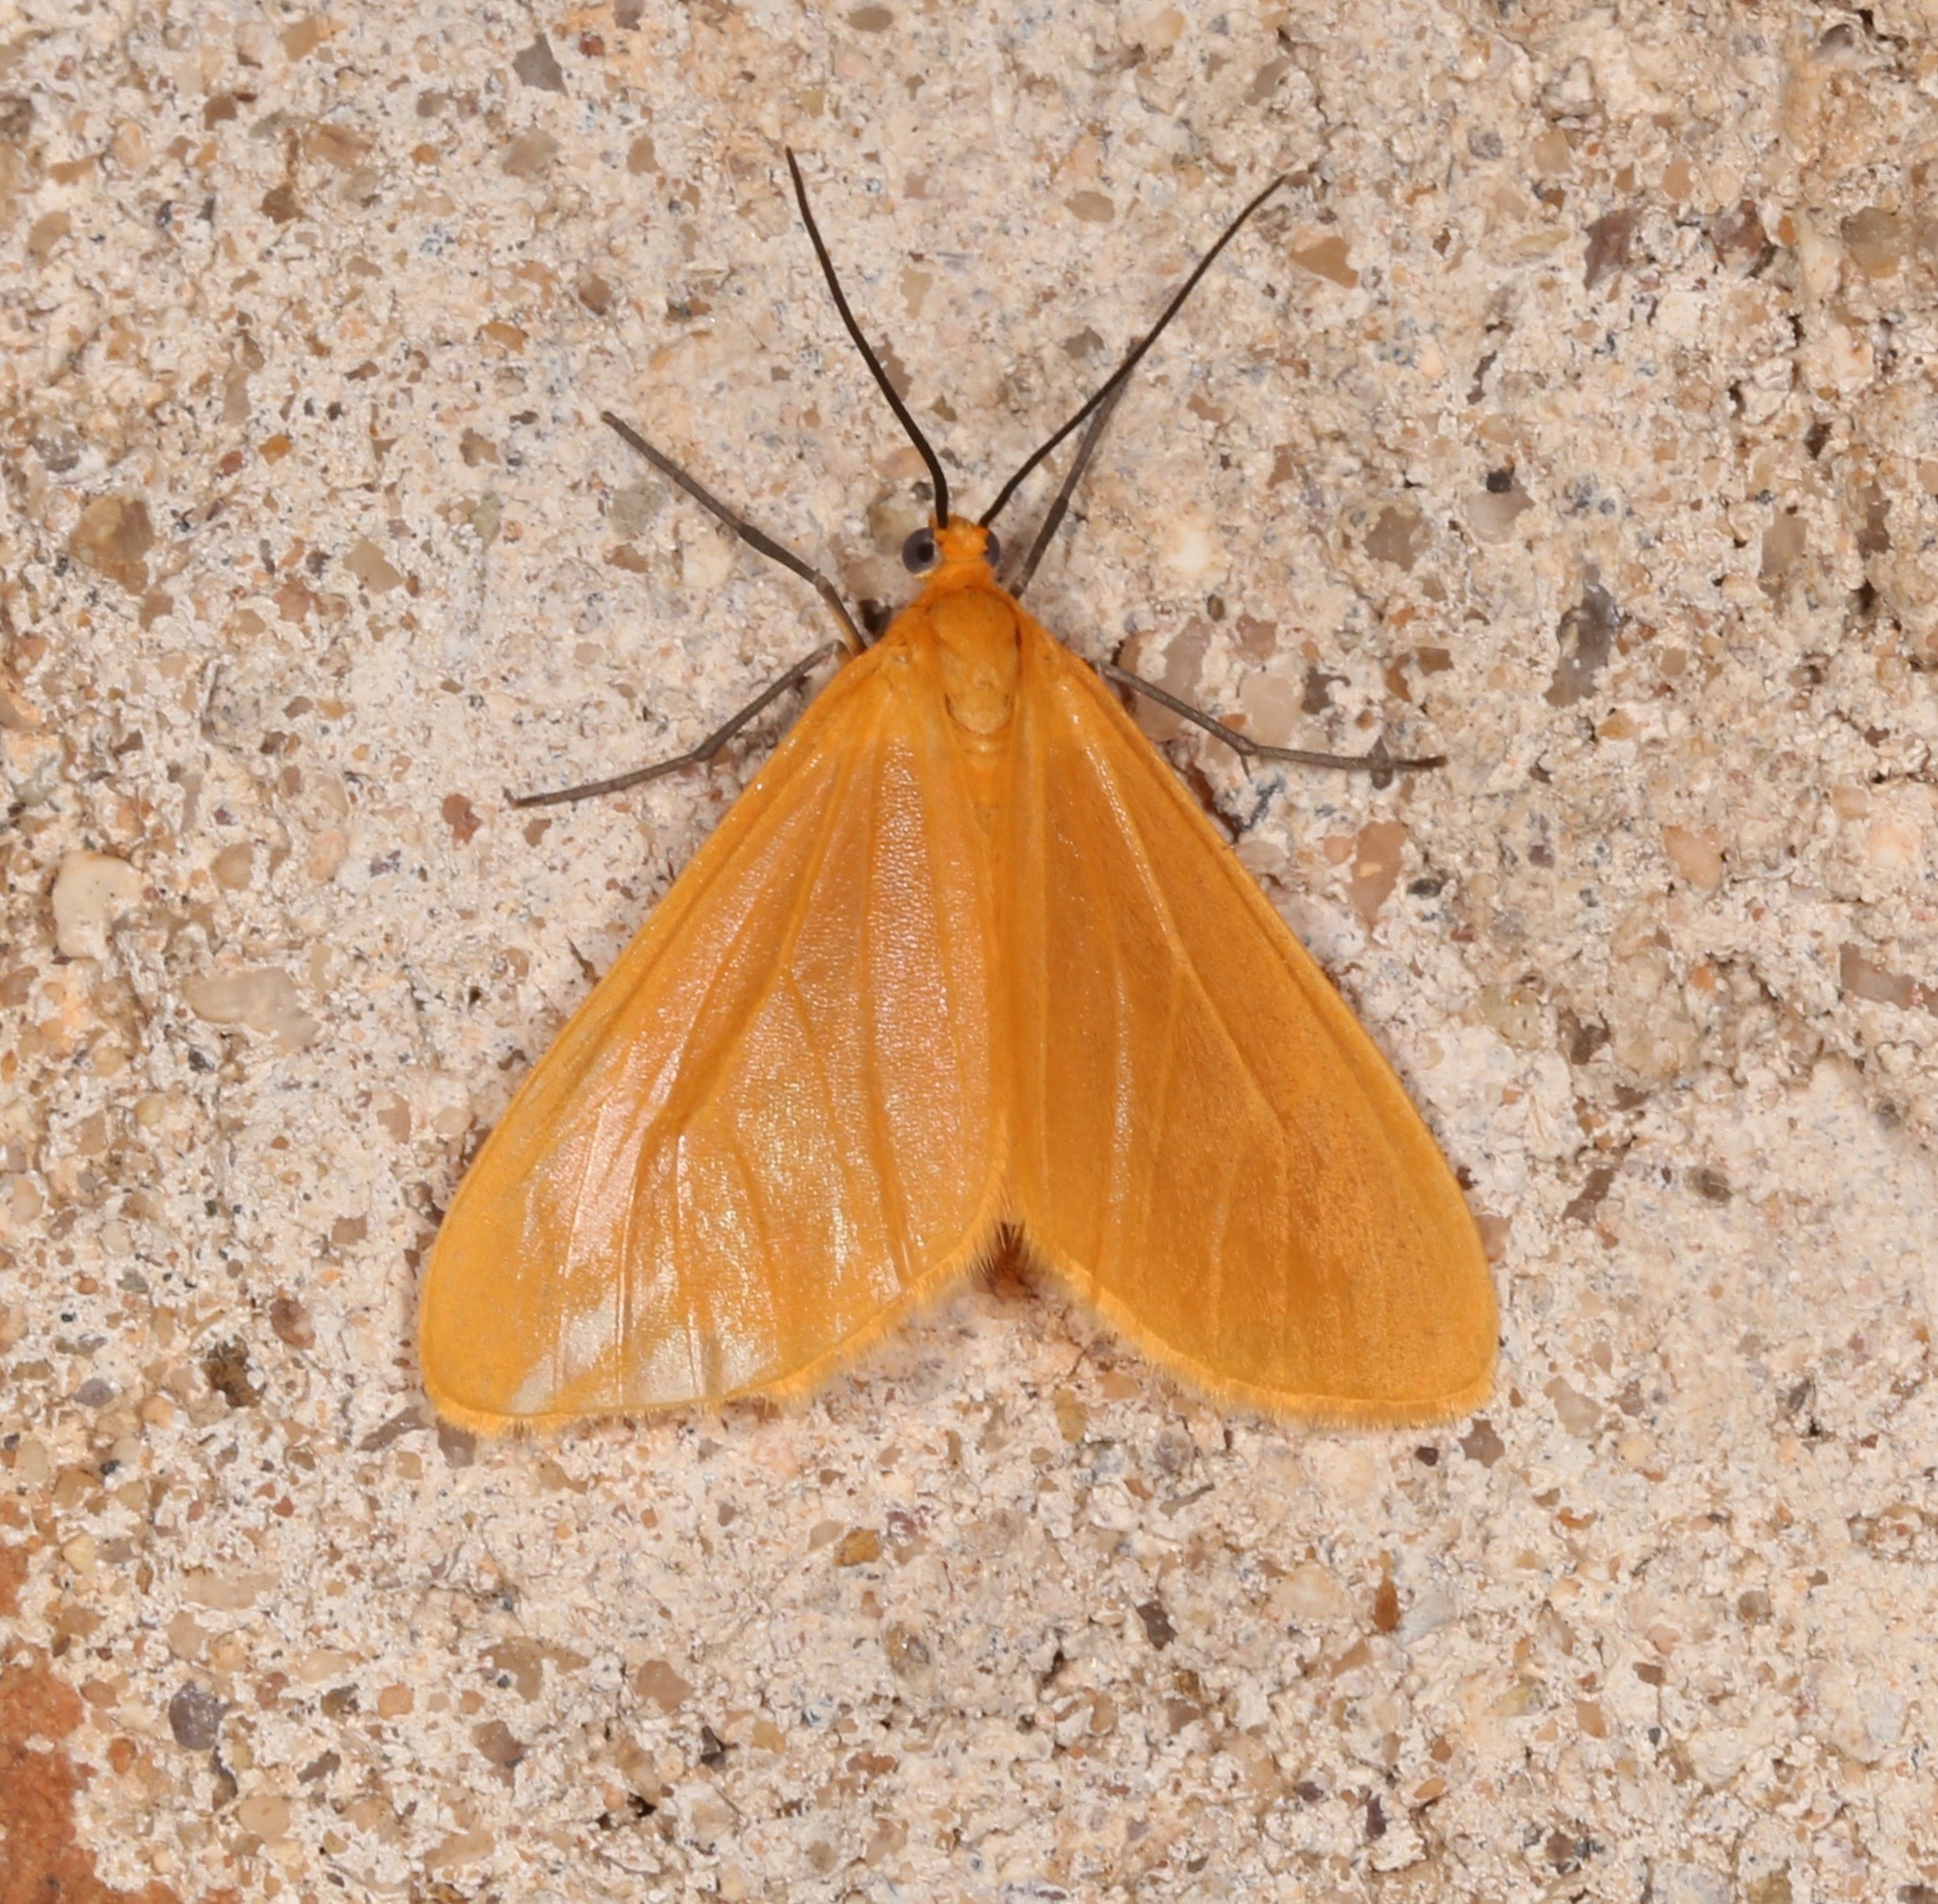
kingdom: Animalia
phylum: Arthropoda
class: Insecta
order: Lepidoptera
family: Geometridae
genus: Eubaphe
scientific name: Eubaphe unicolor
